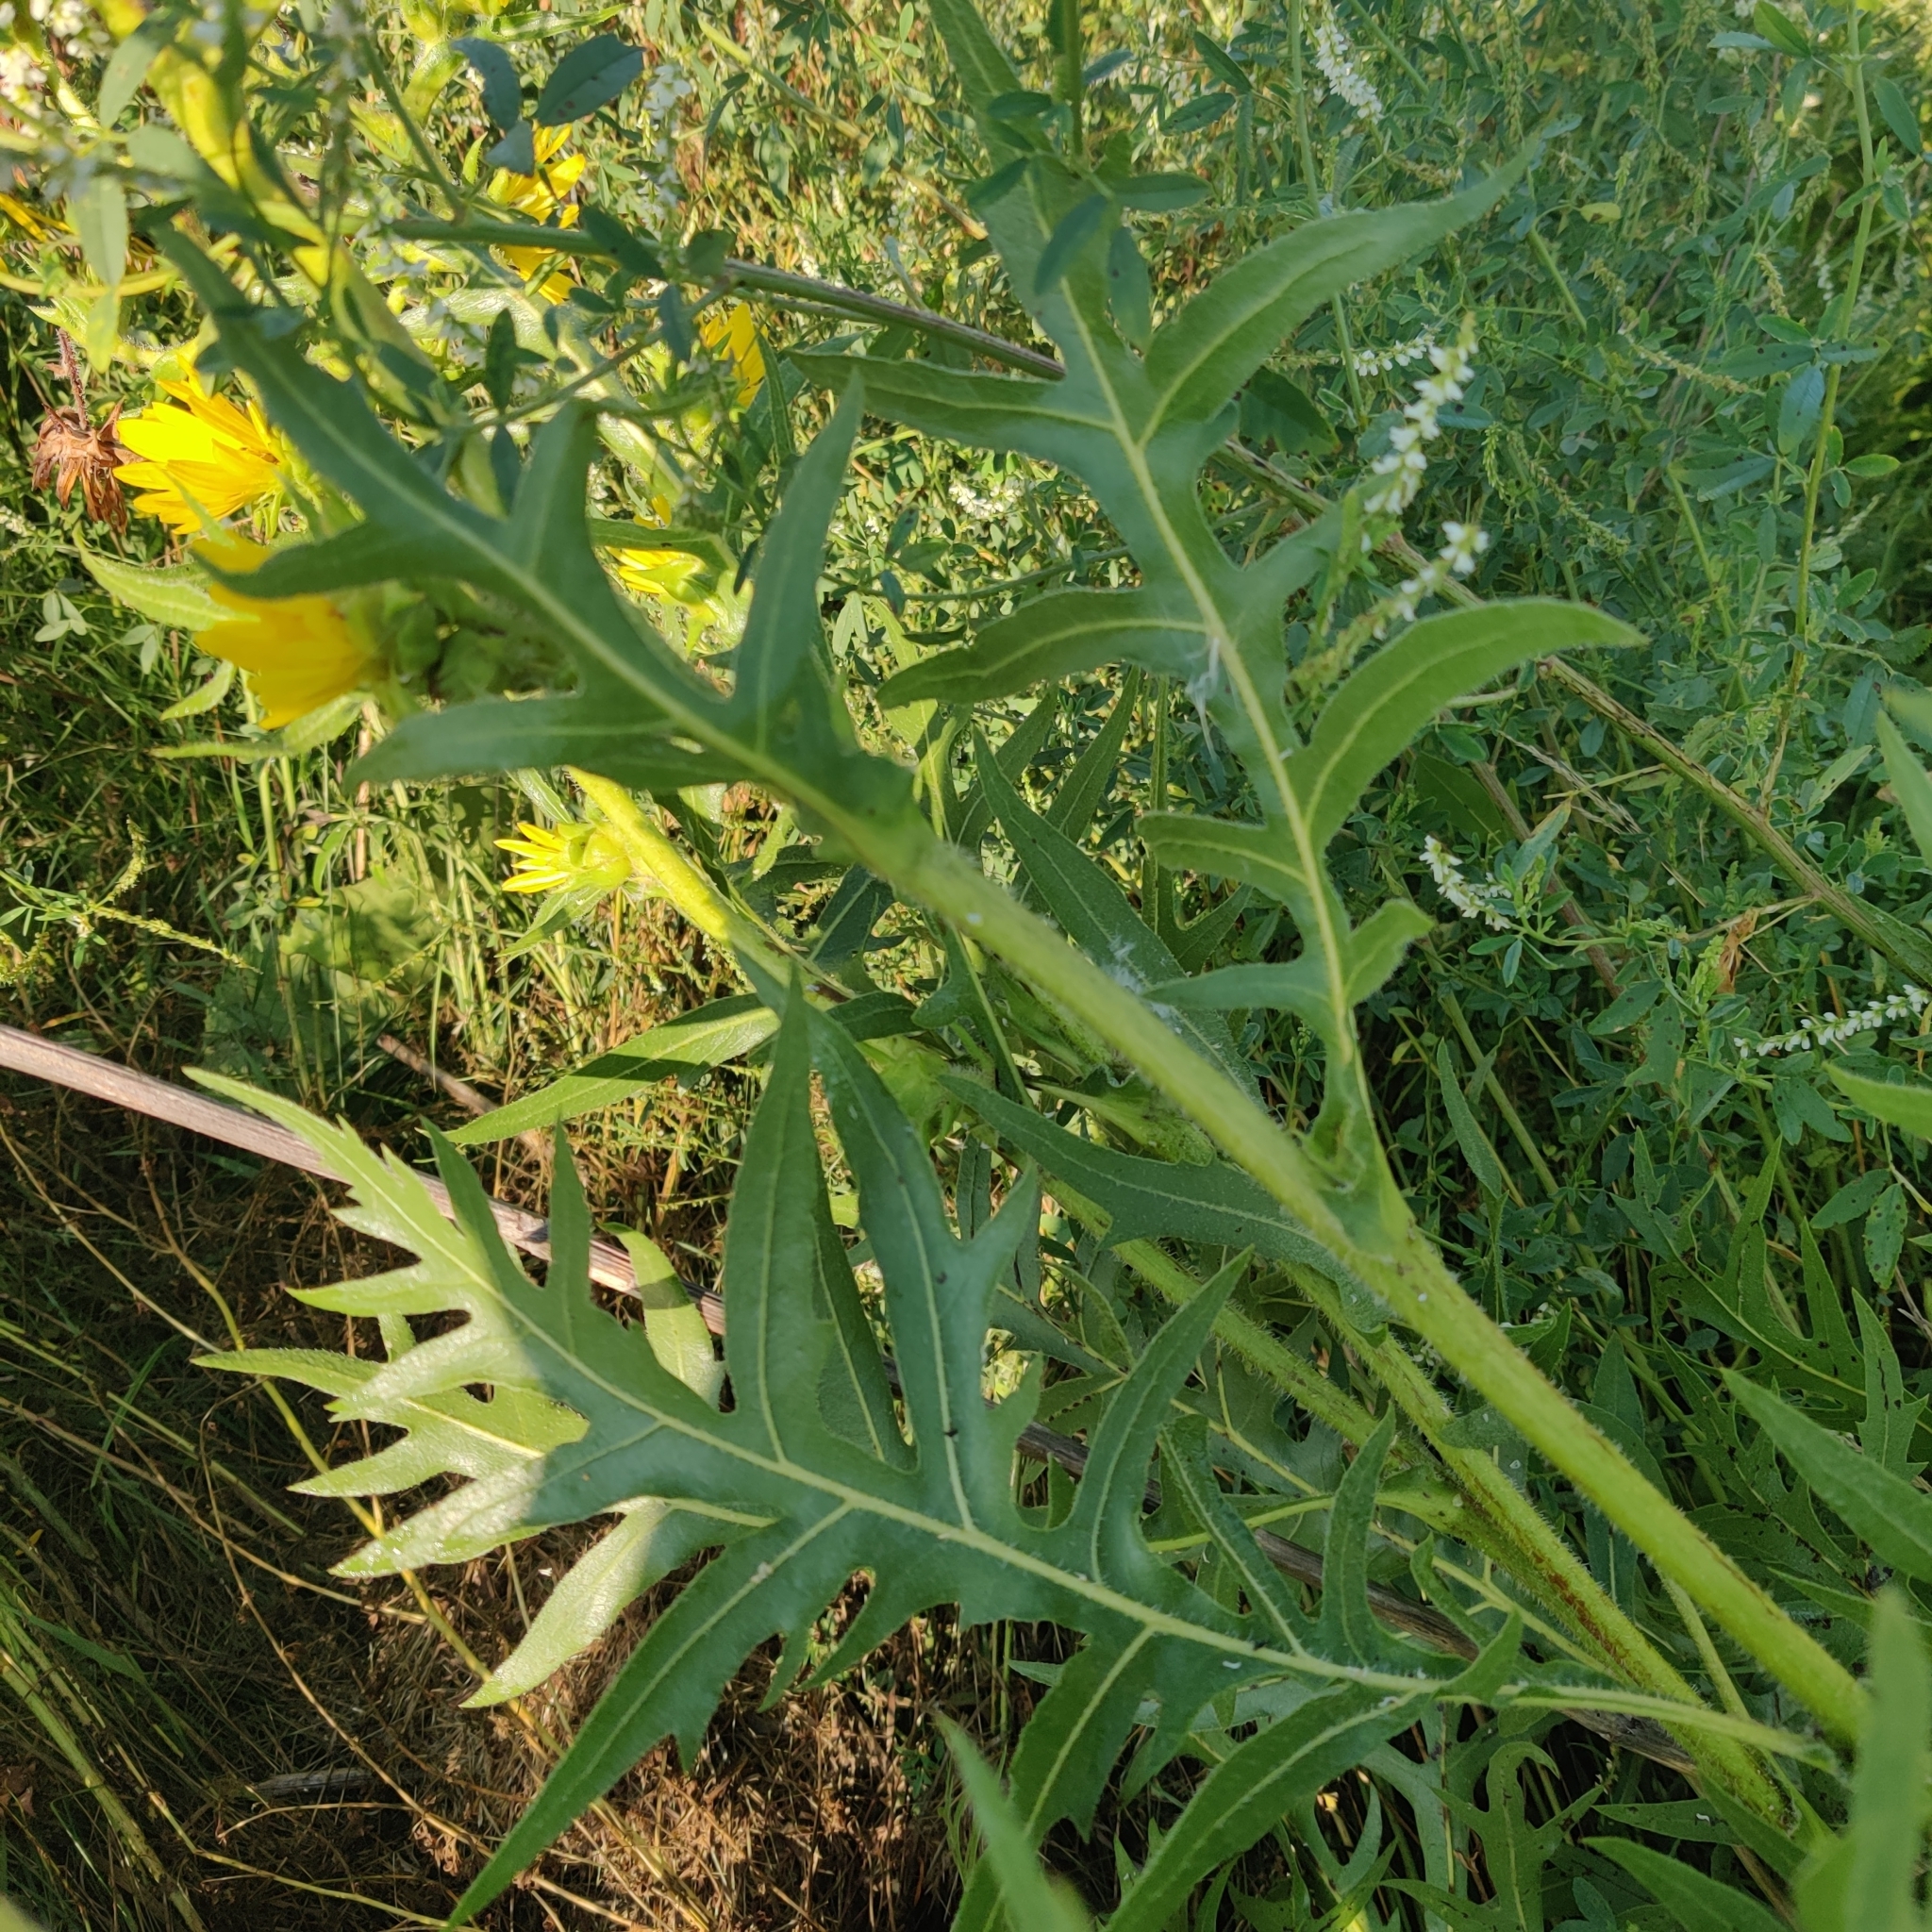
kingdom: Plantae
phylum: Tracheophyta
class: Magnoliopsida
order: Asterales
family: Asteraceae
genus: Silphium
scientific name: Silphium laciniatum
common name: Polarplant
